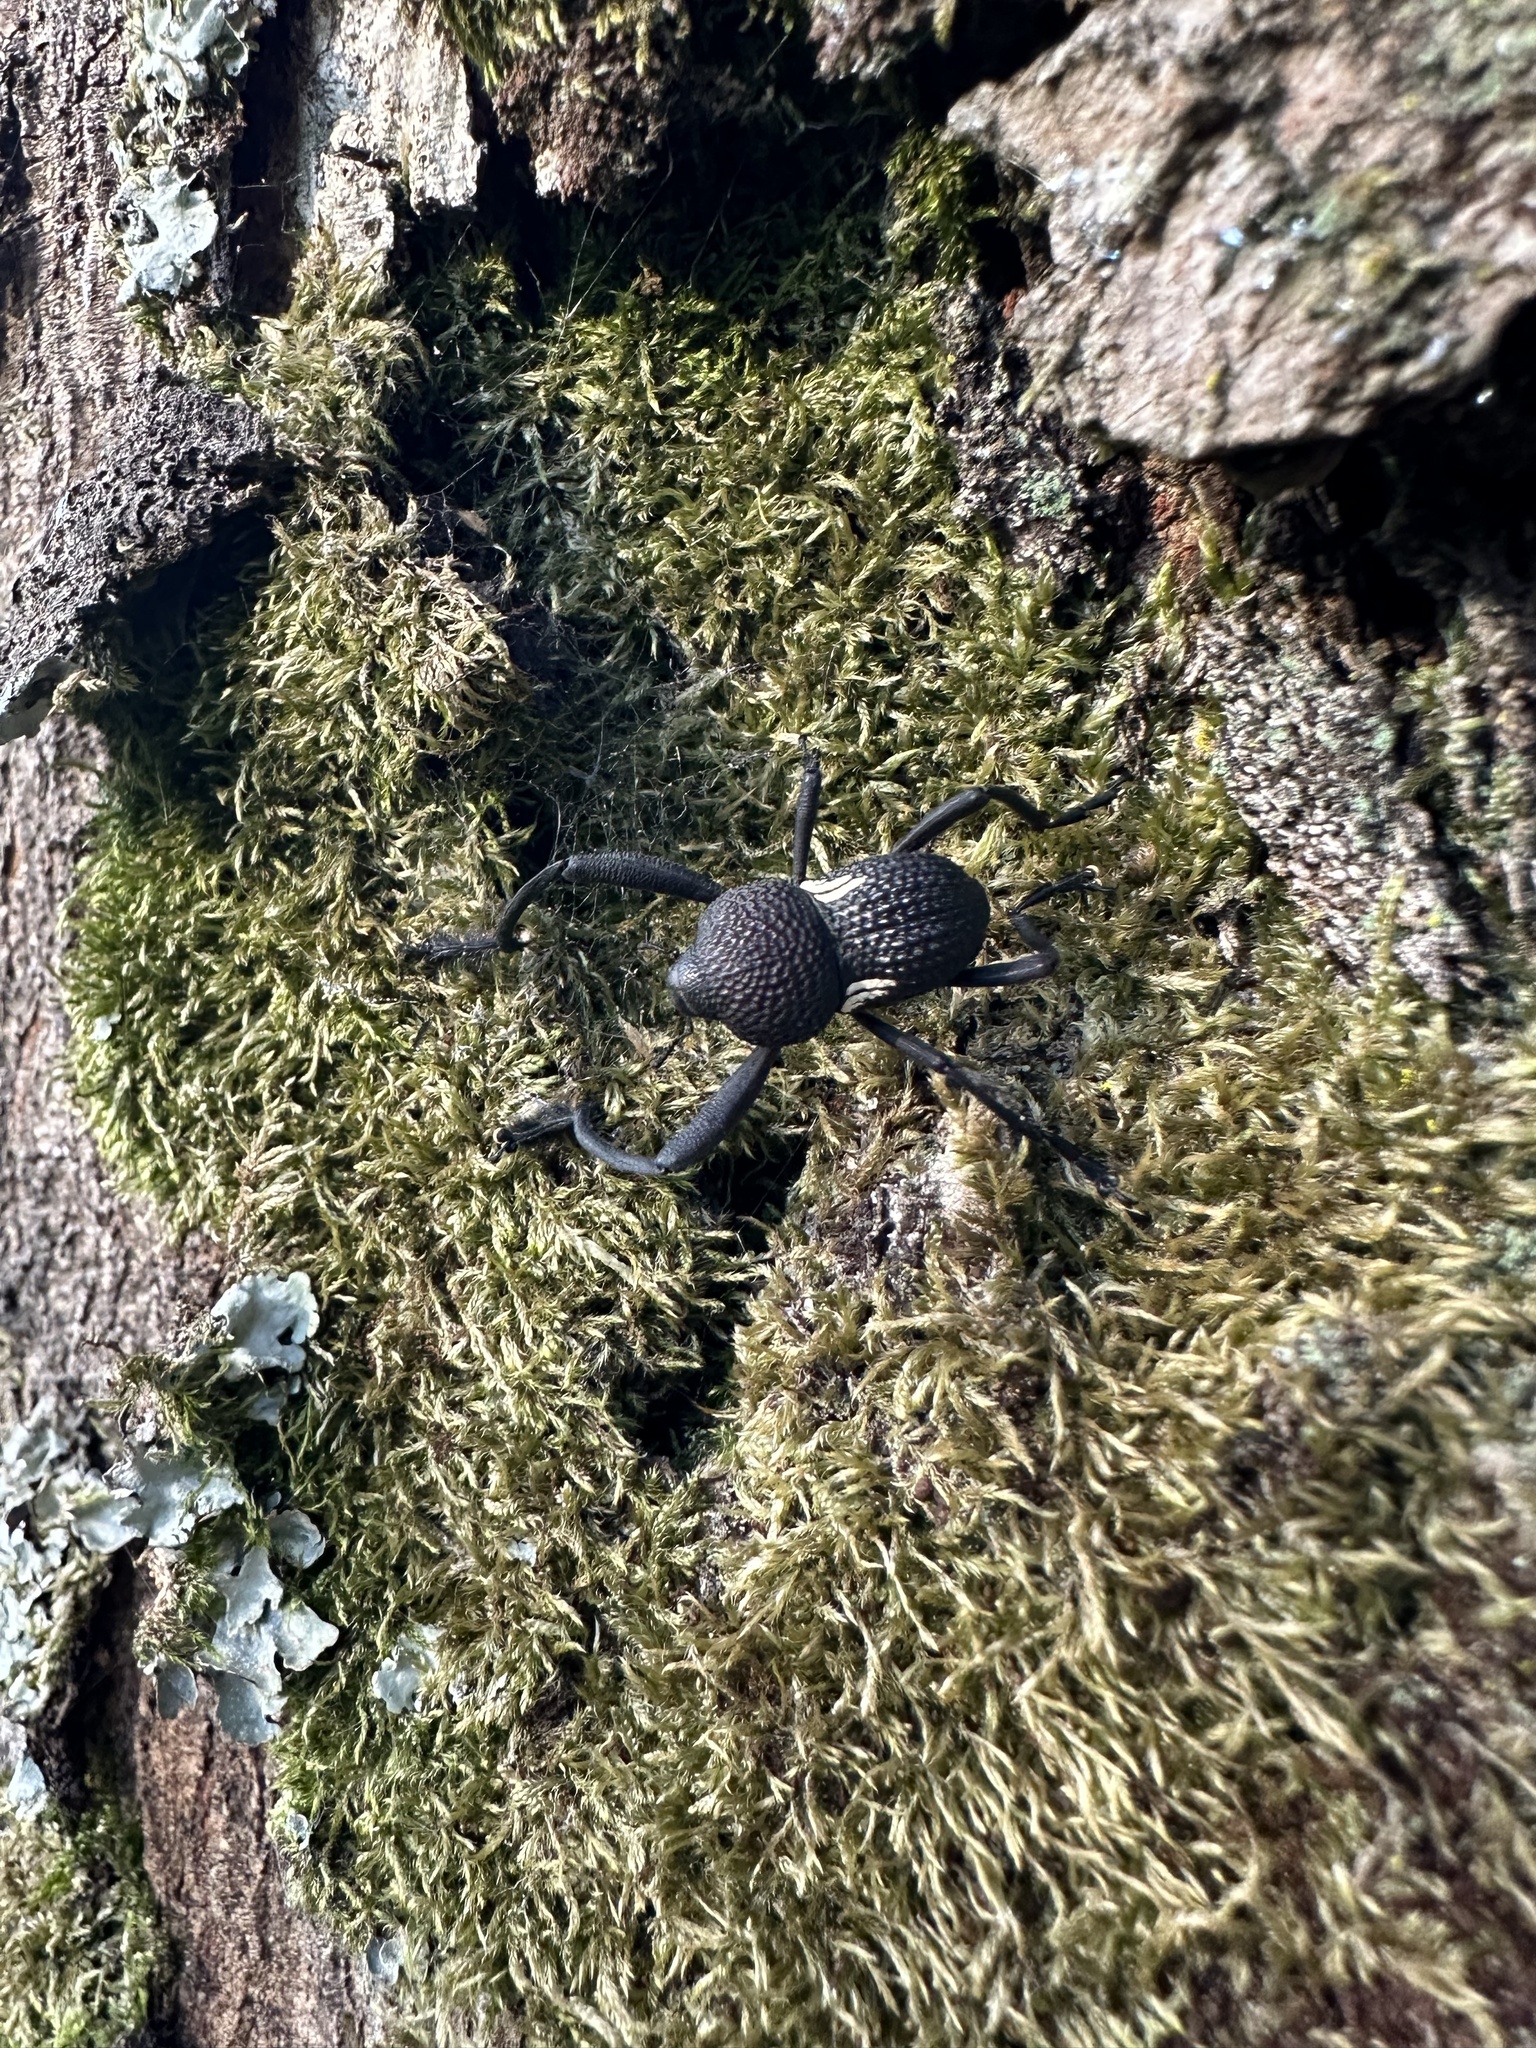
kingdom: Animalia
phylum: Arthropoda
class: Insecta
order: Coleoptera
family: Curculionidae
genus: Rhyephenes
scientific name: Rhyephenes humeralis
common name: Araè±ita chilena del pino
